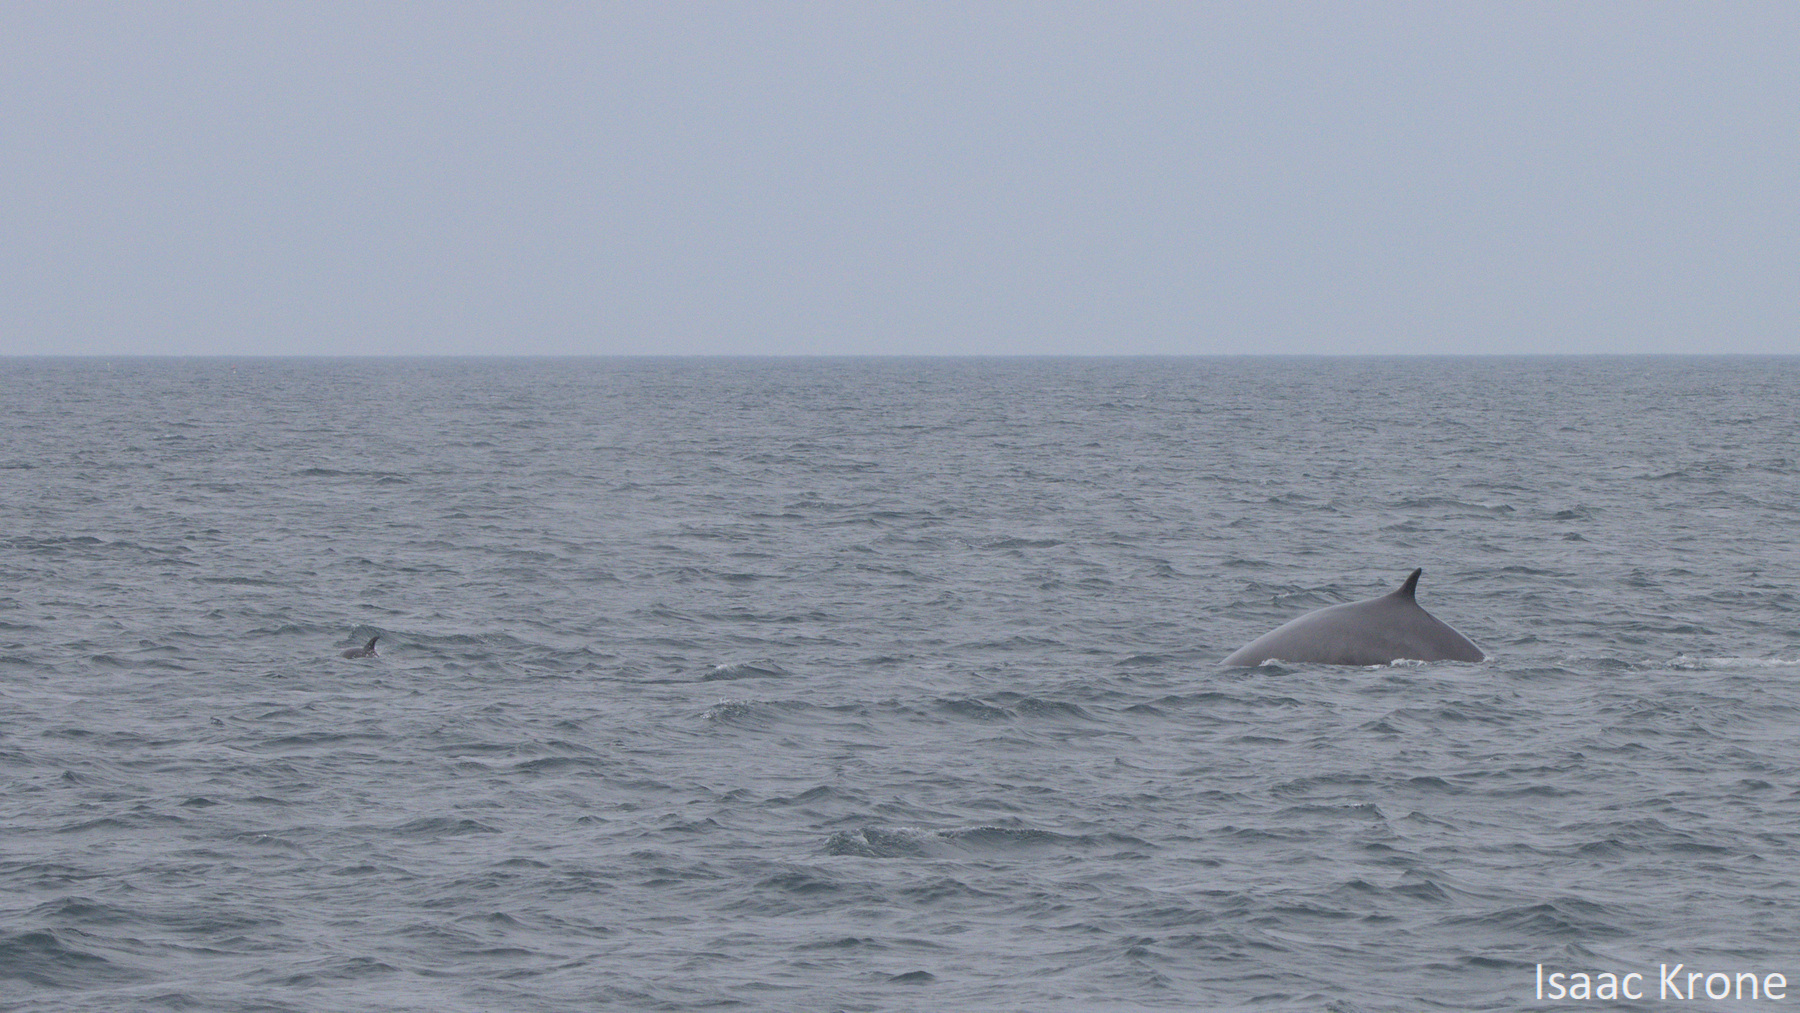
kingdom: Animalia
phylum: Chordata
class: Mammalia
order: Cetacea
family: Balaenopteridae
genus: Balaenoptera
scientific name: Balaenoptera physalus
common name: Fin whale
